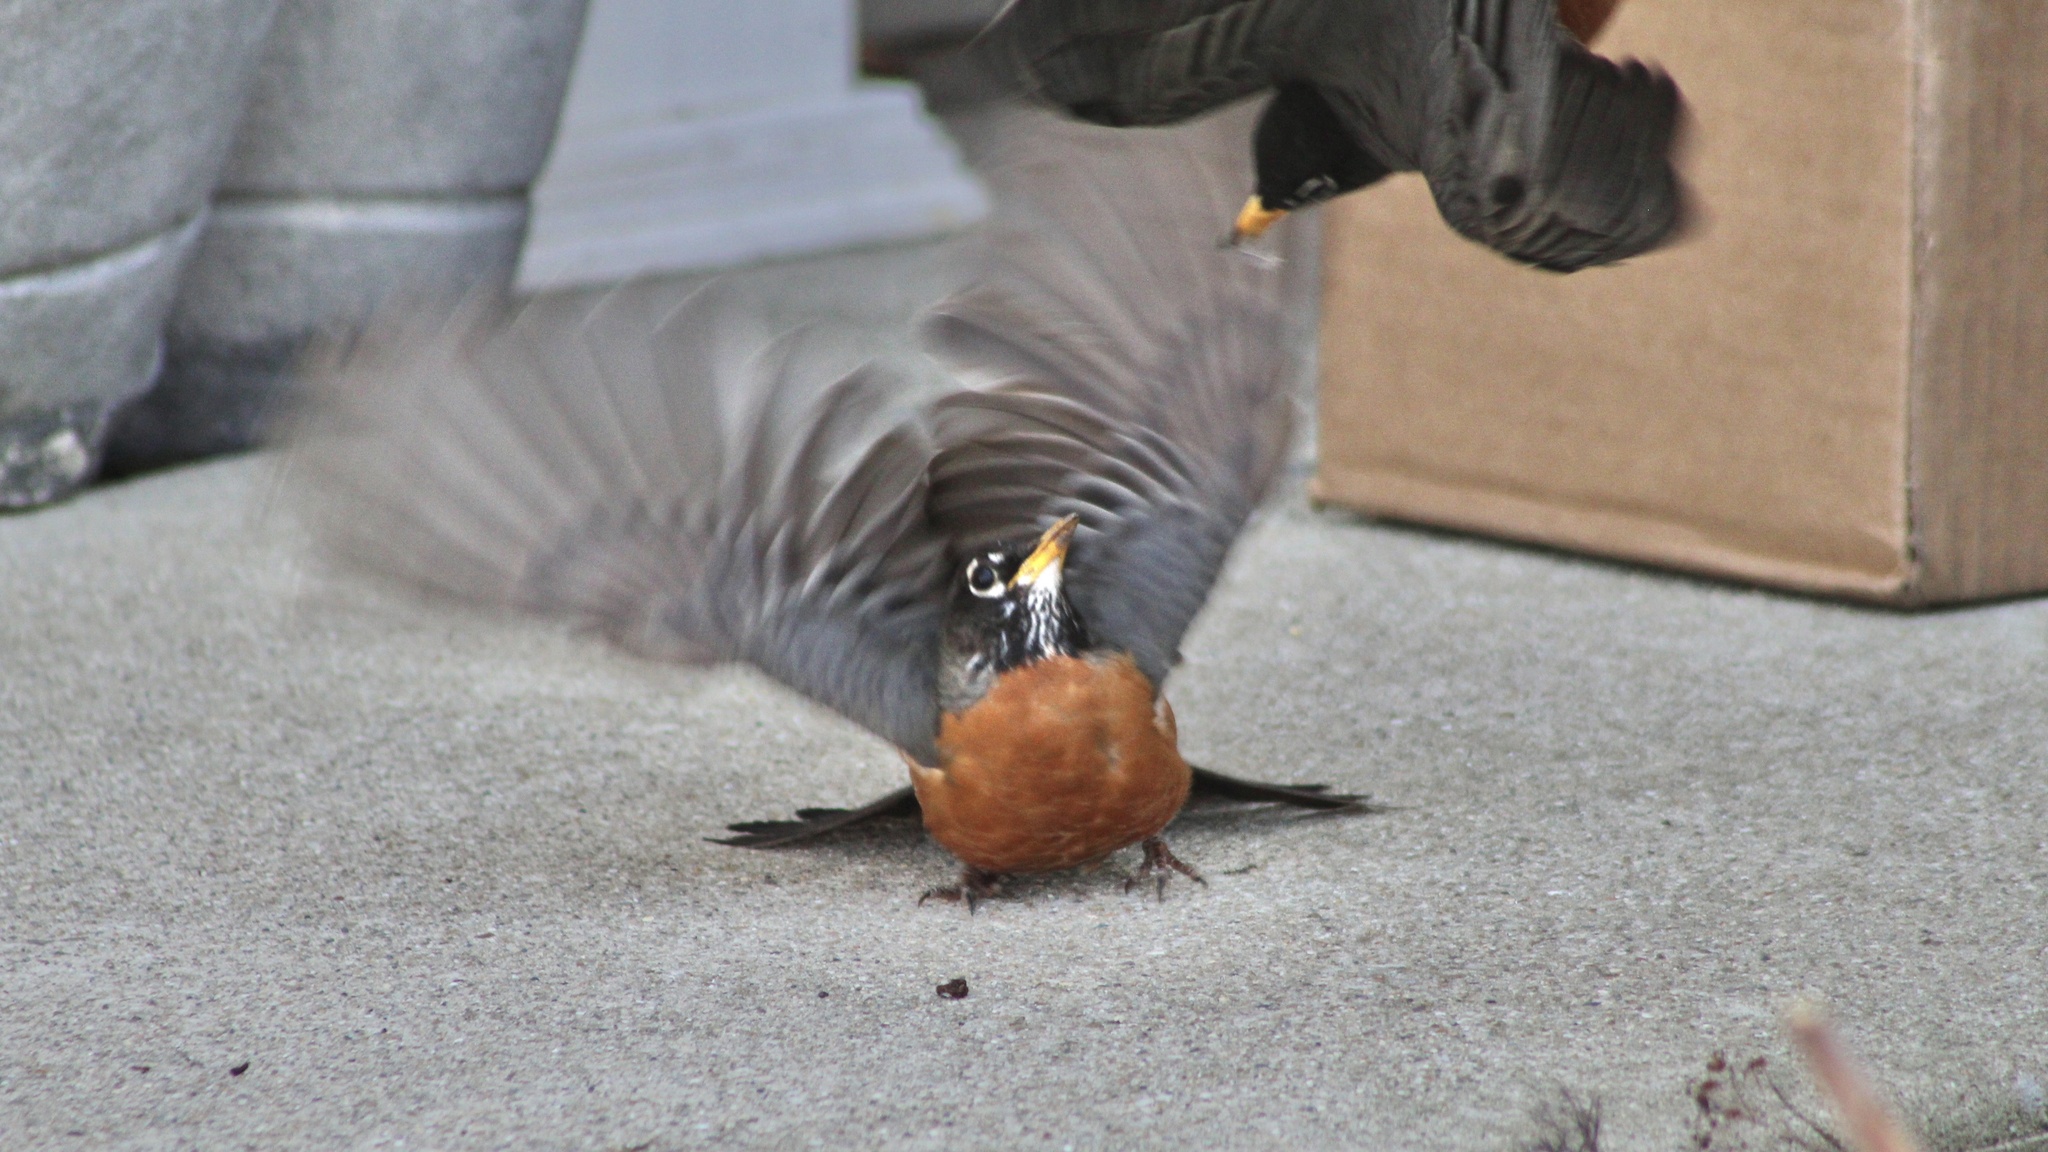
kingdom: Animalia
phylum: Chordata
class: Aves
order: Passeriformes
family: Turdidae
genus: Turdus
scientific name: Turdus migratorius
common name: American robin
